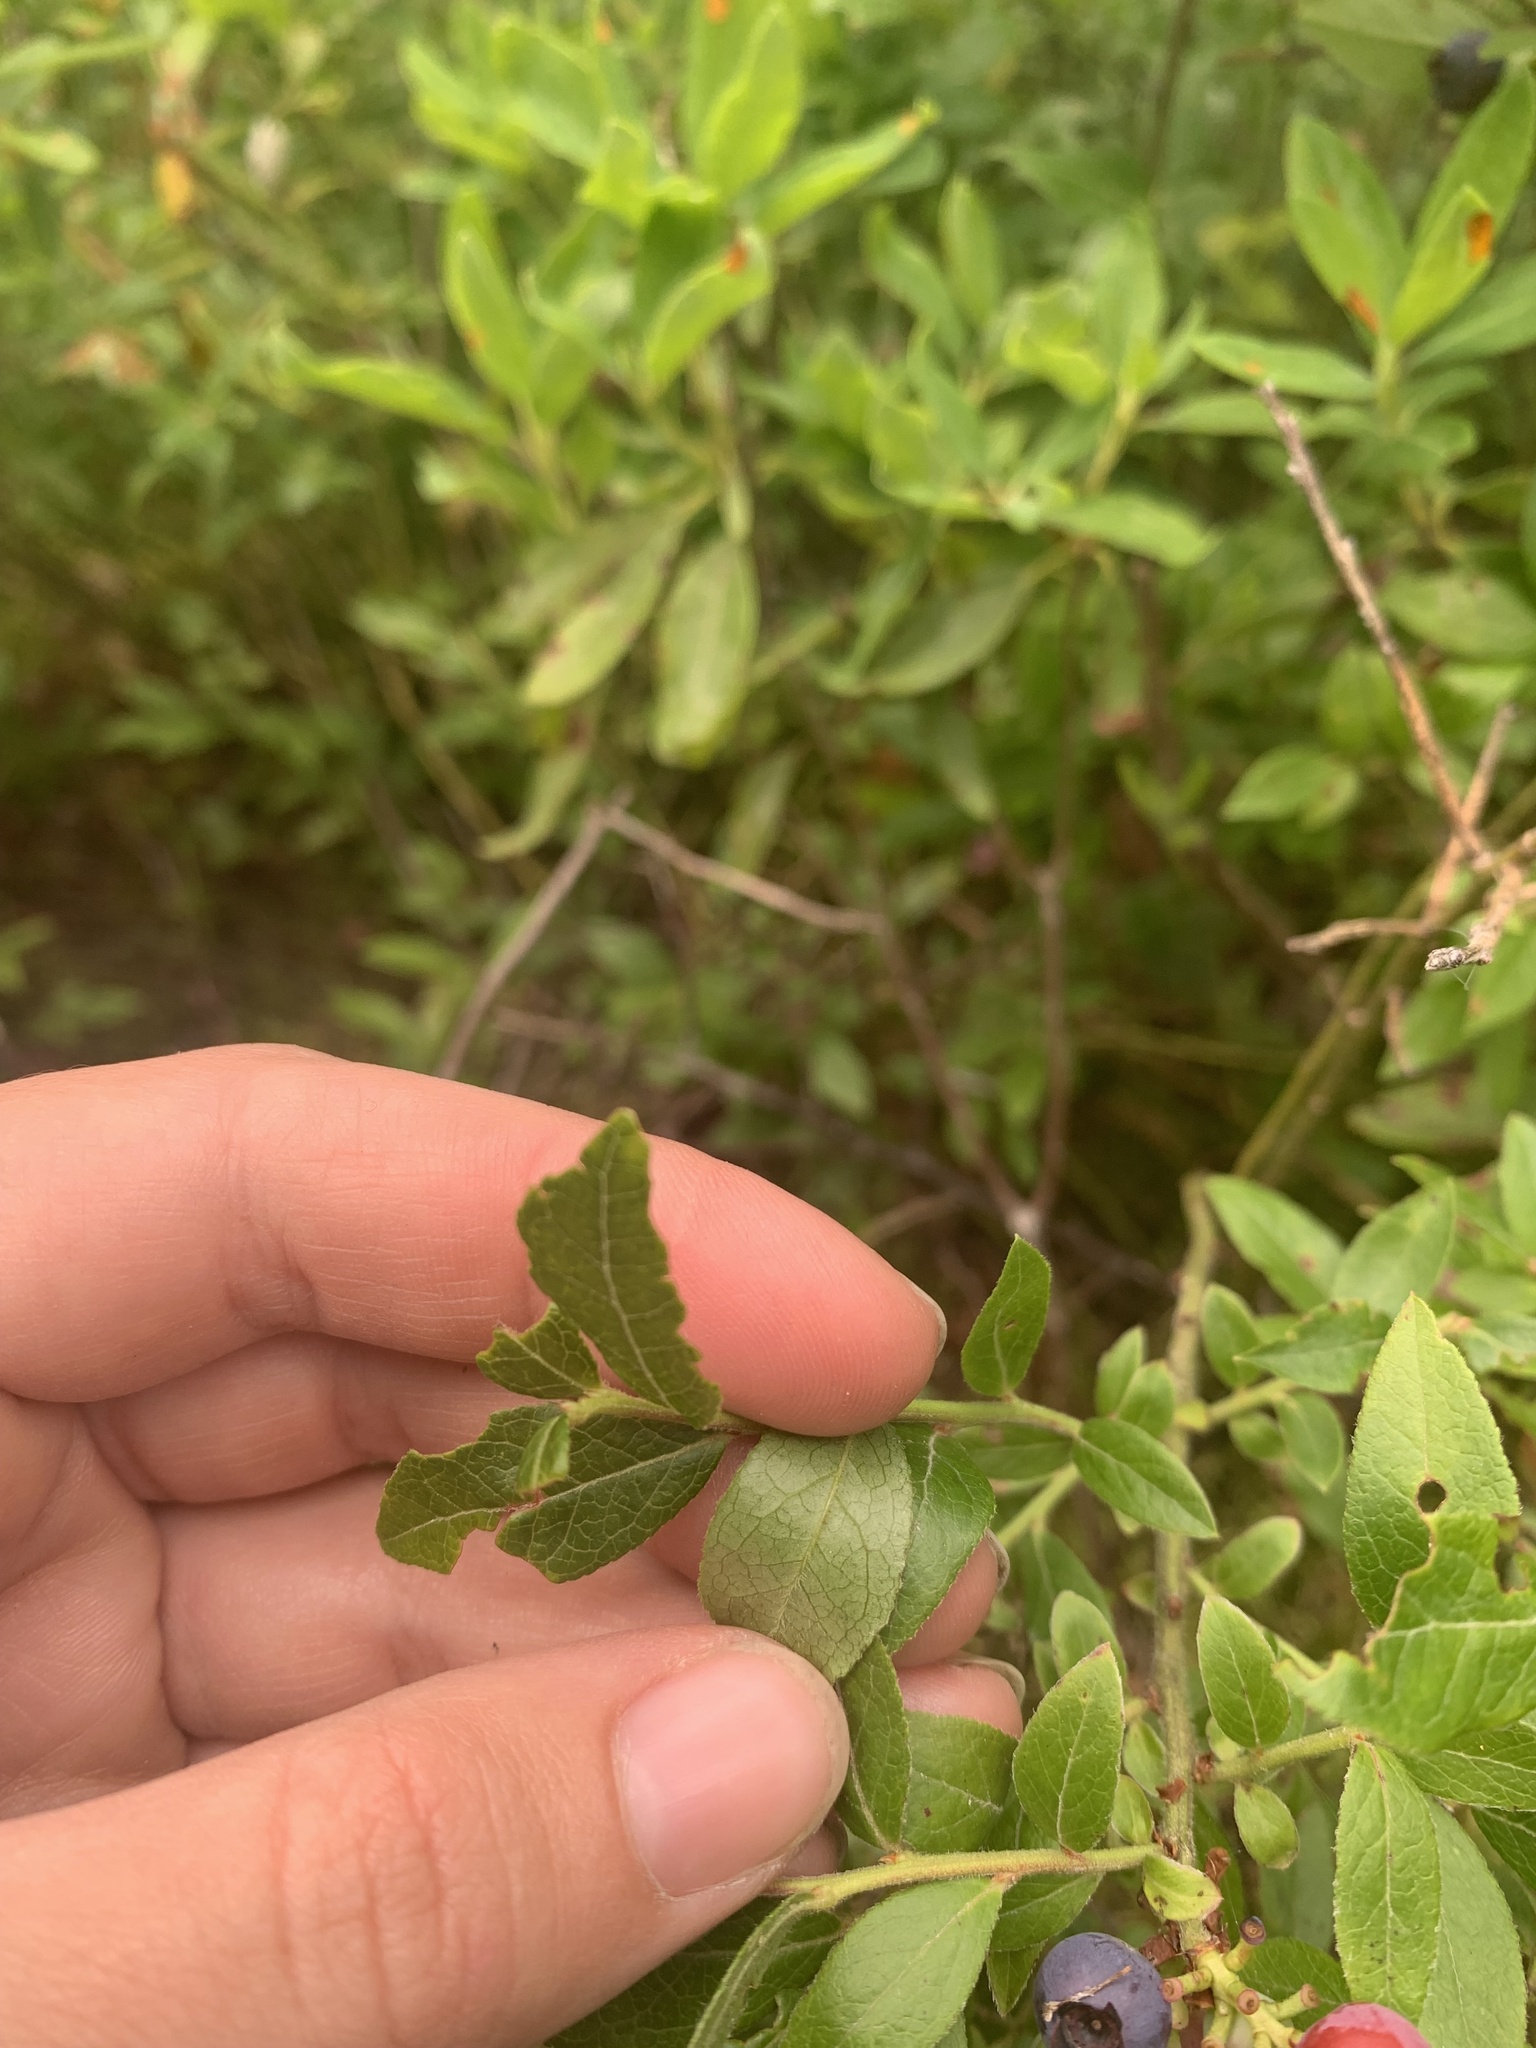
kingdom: Plantae
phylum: Tracheophyta
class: Magnoliopsida
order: Ericales
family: Ericaceae
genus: Vaccinium
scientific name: Vaccinium angustifolium
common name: Early lowbush blueberry
